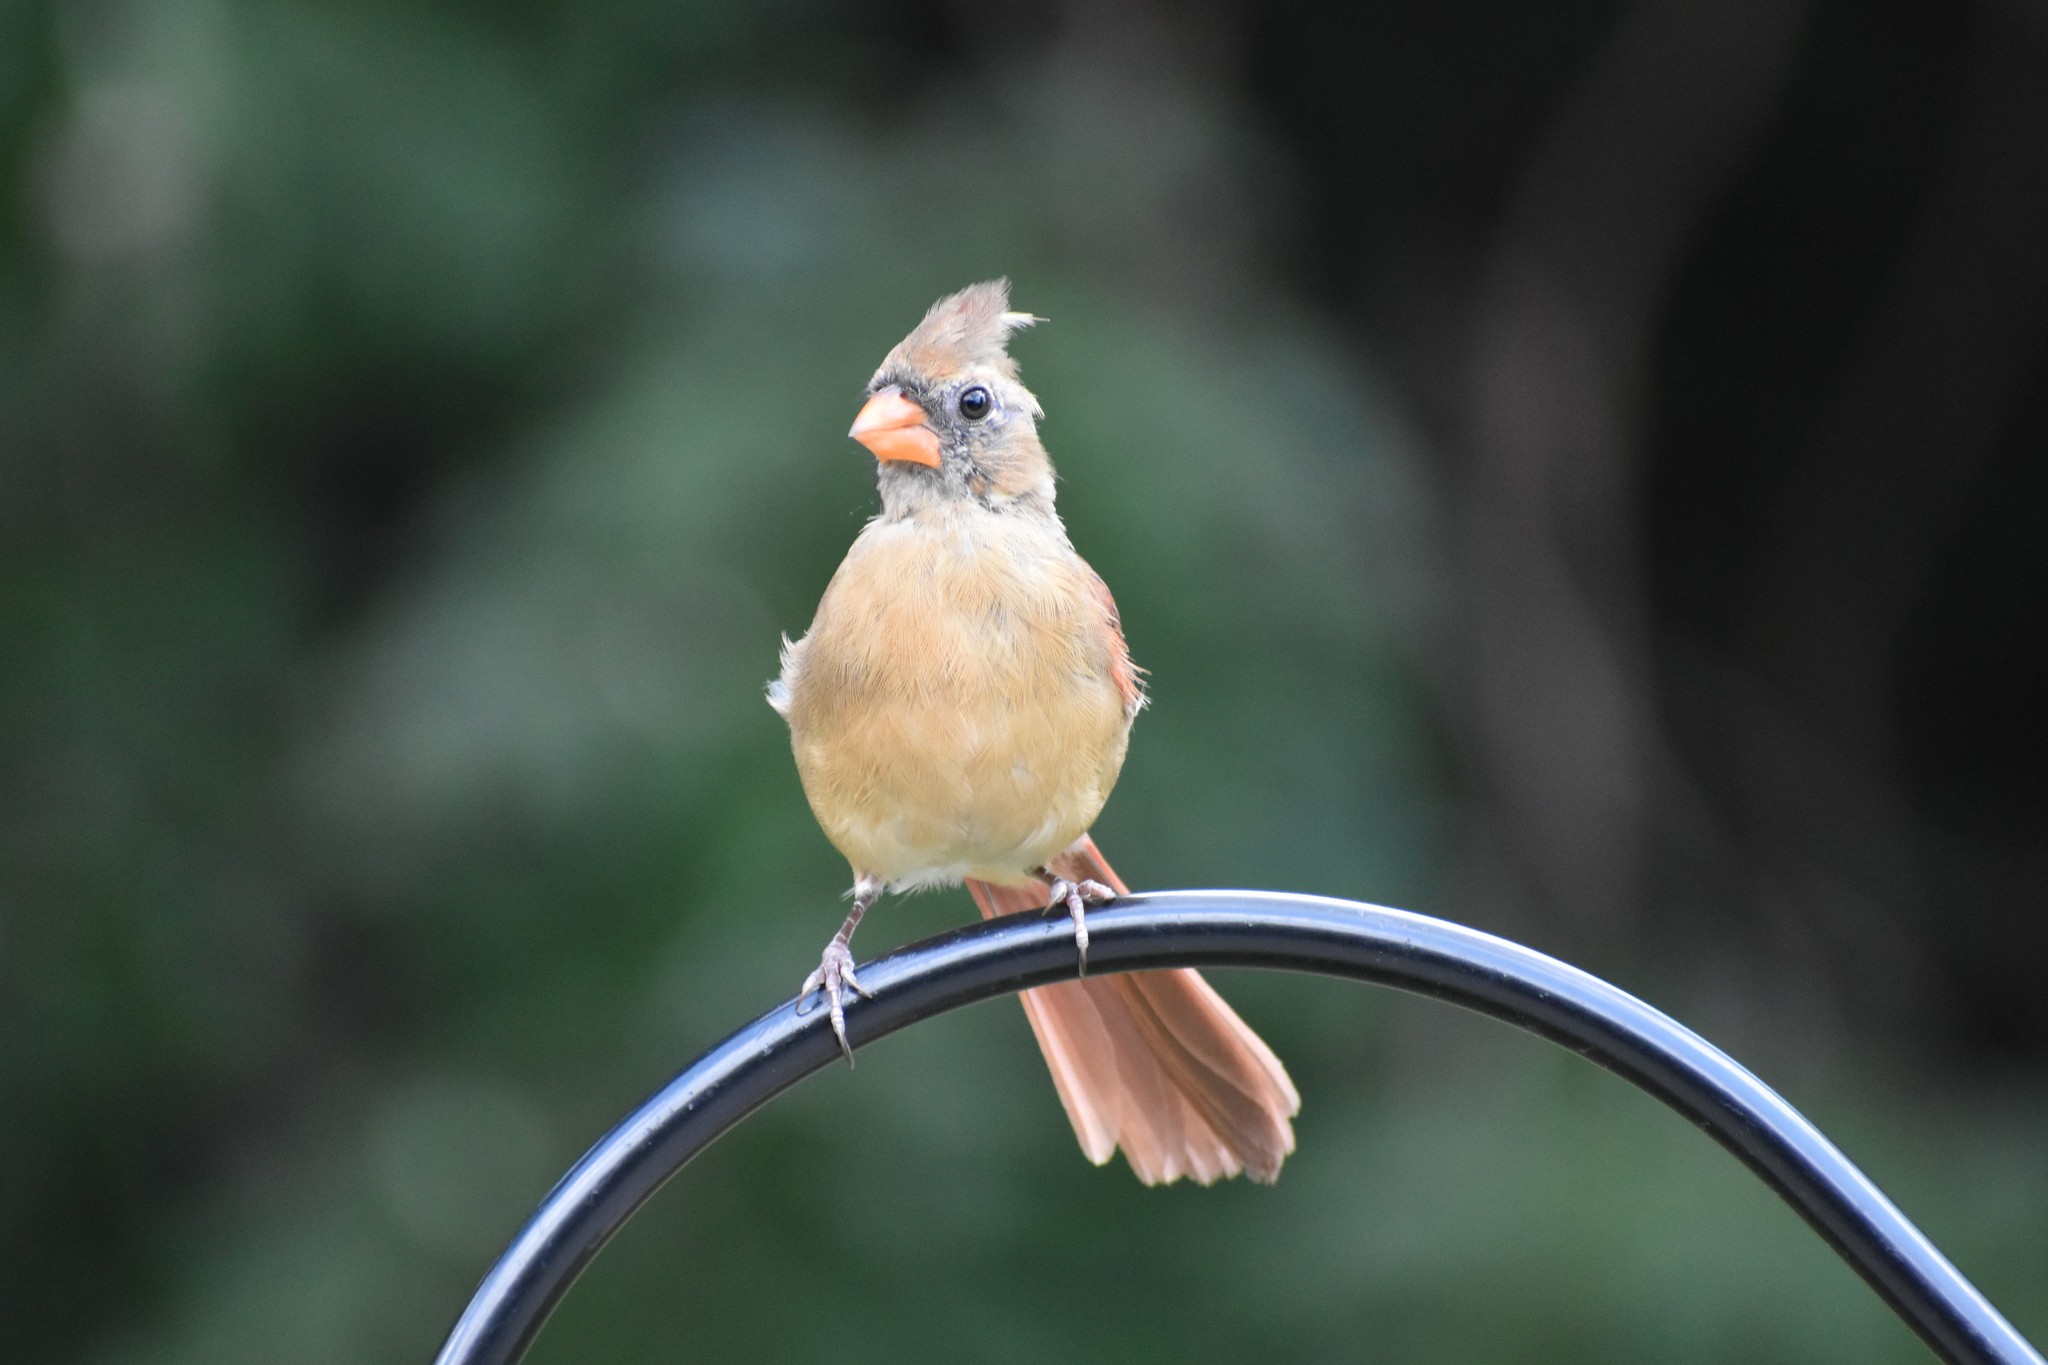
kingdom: Animalia
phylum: Chordata
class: Aves
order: Passeriformes
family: Cardinalidae
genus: Cardinalis
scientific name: Cardinalis cardinalis
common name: Northern cardinal
